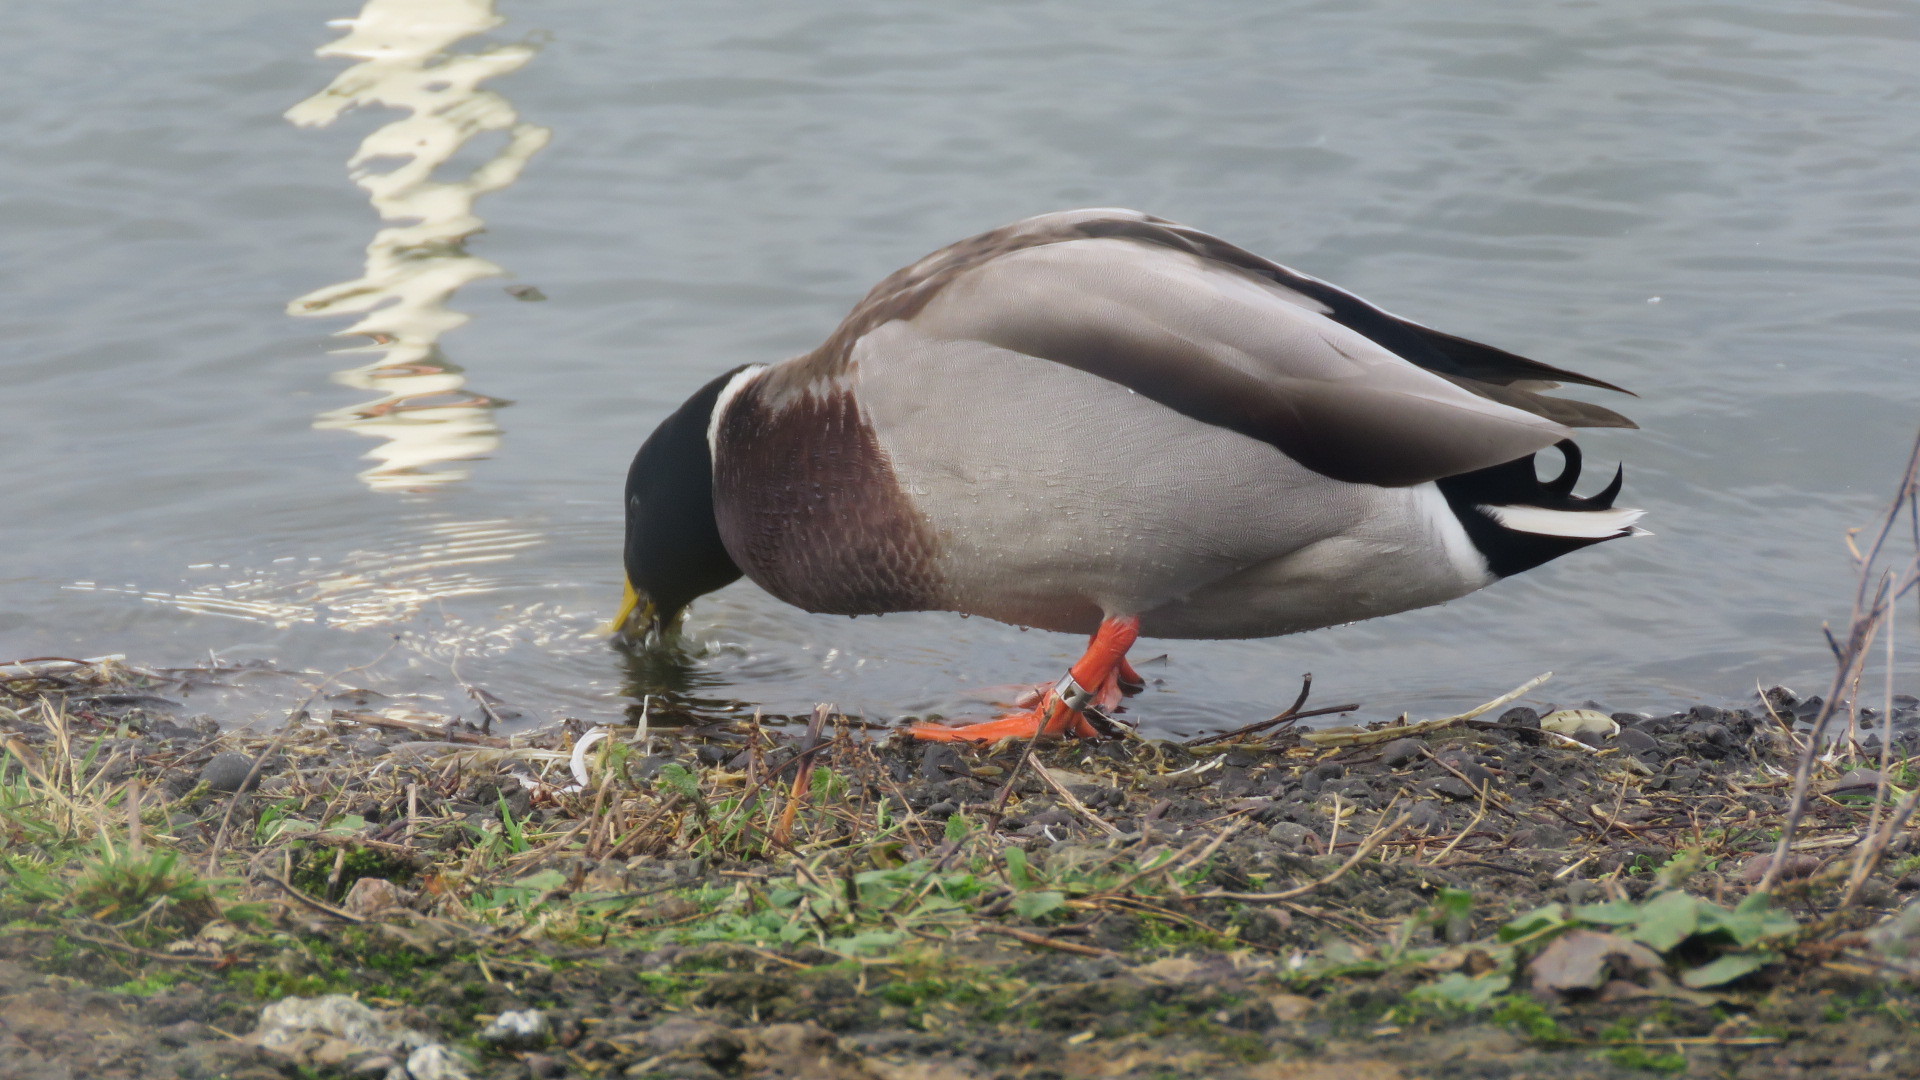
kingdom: Animalia
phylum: Chordata
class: Aves
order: Anseriformes
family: Anatidae
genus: Anas
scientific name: Anas platyrhynchos
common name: Mallard
